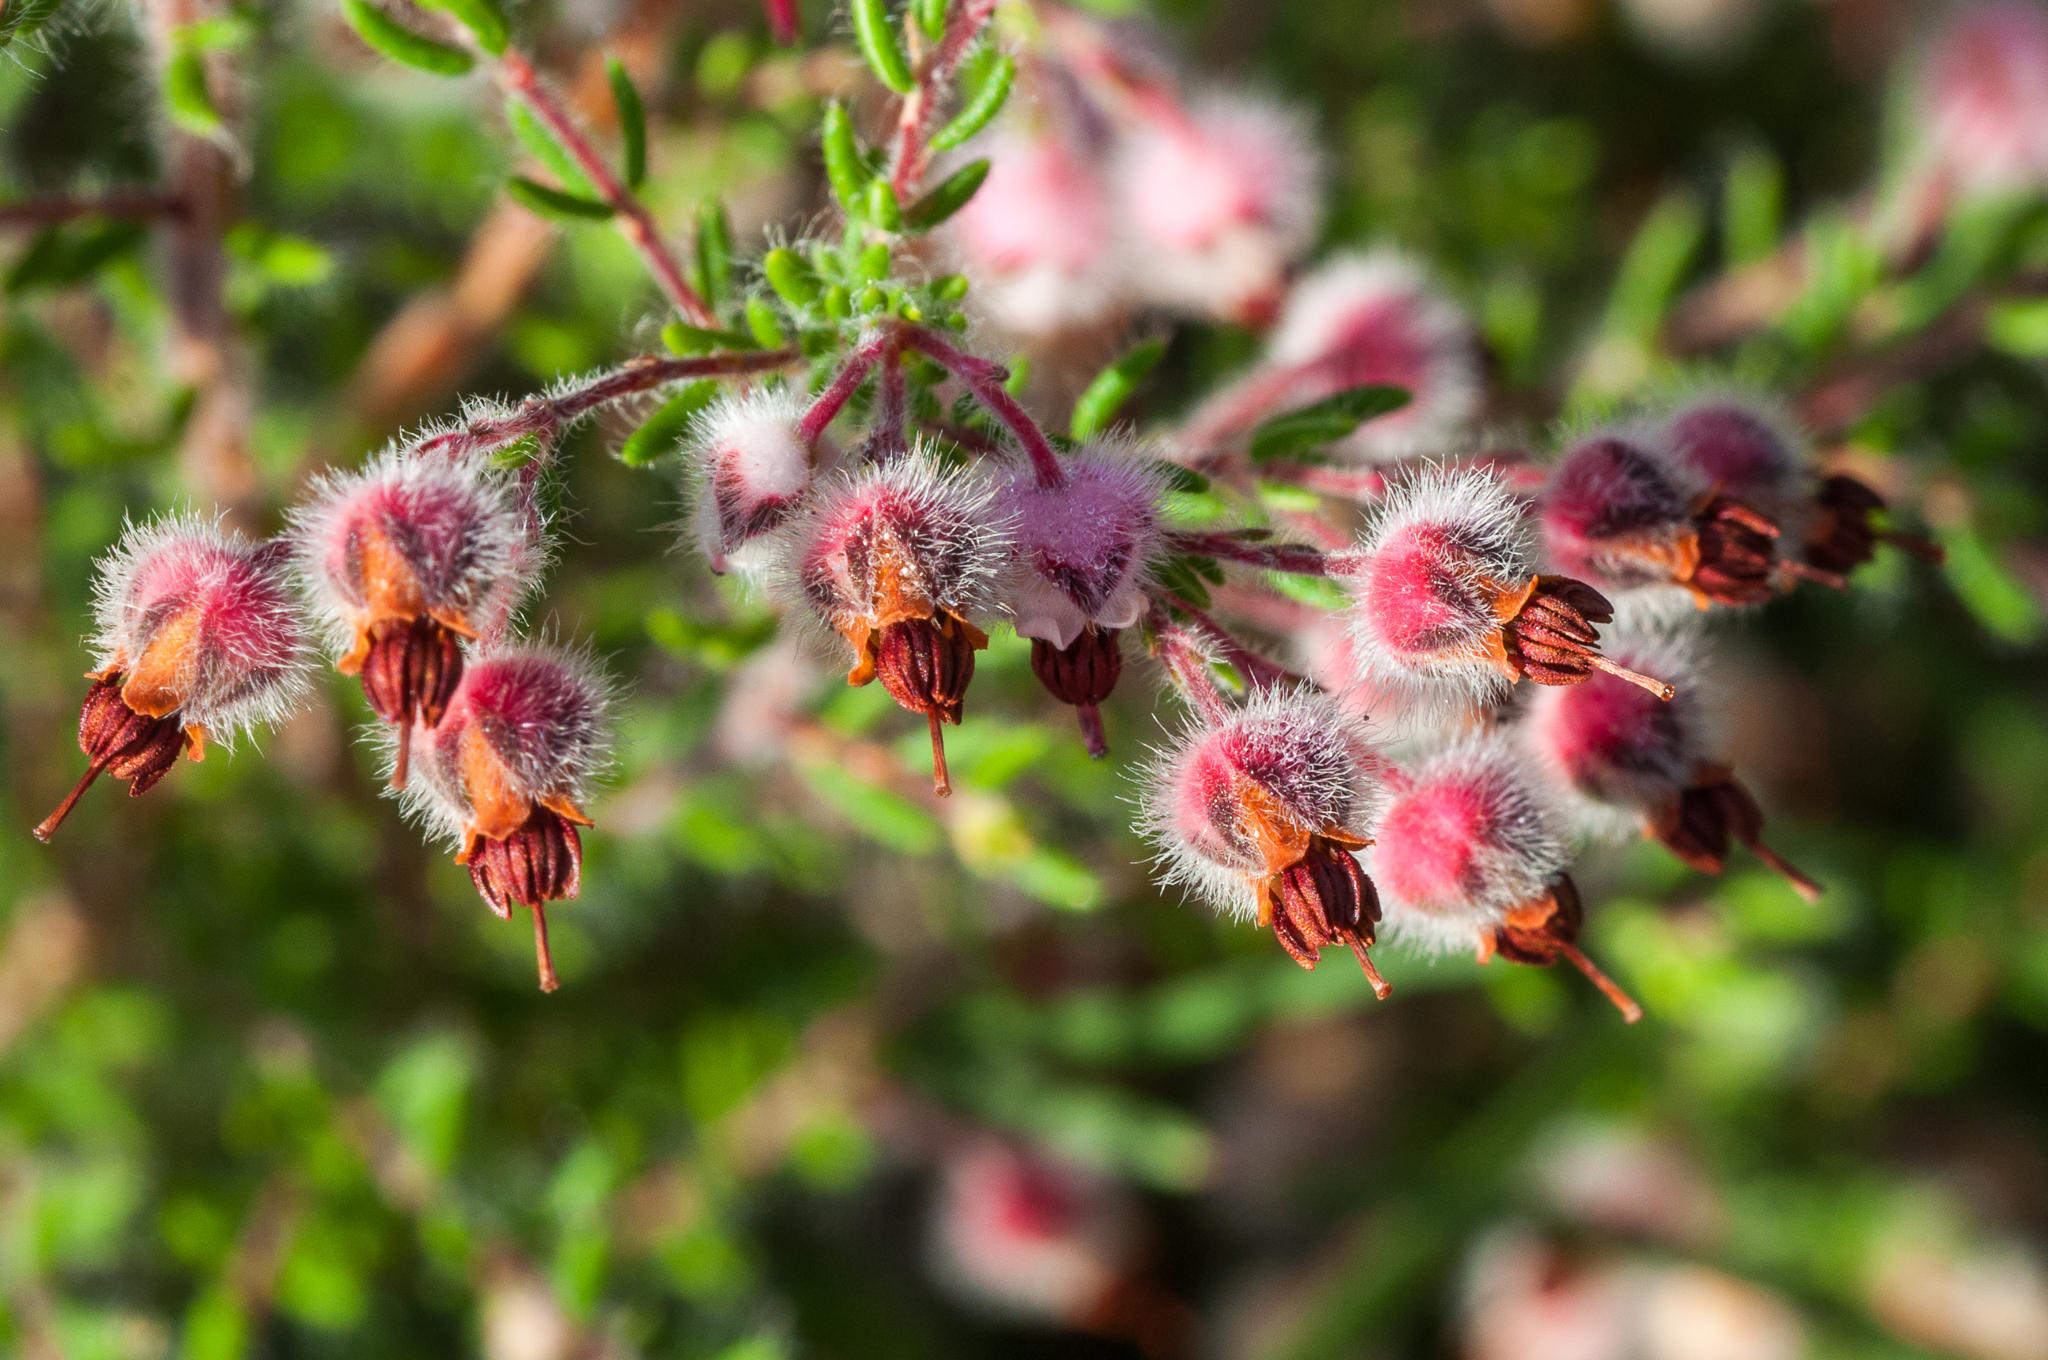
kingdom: Plantae
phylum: Tracheophyta
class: Magnoliopsida
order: Ericales
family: Ericaceae
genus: Erica
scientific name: Erica bruniades
